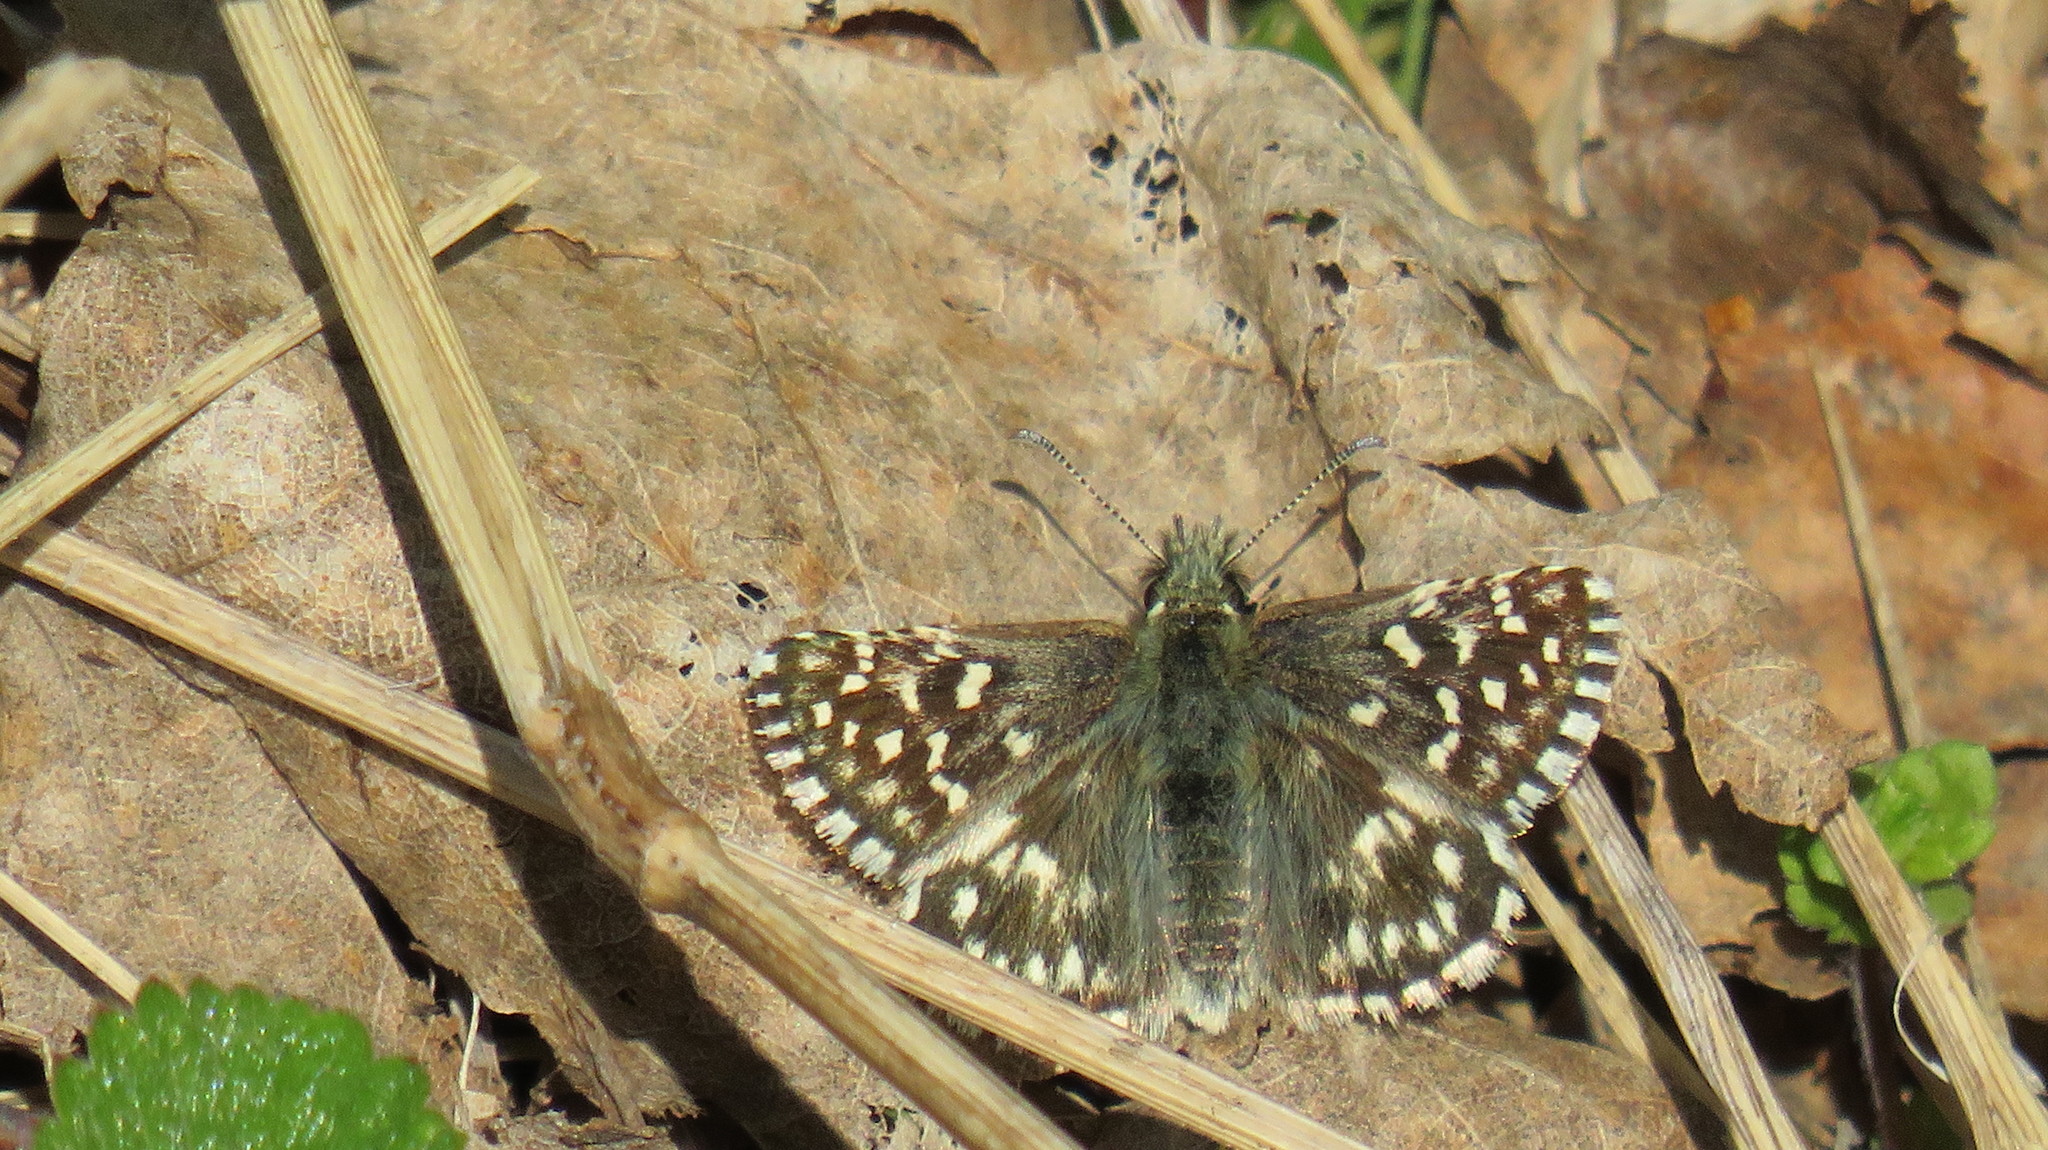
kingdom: Animalia
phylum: Arthropoda
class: Insecta
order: Lepidoptera
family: Hesperiidae
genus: Pyrgus
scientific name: Pyrgus malvae
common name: Grizzled skipper
